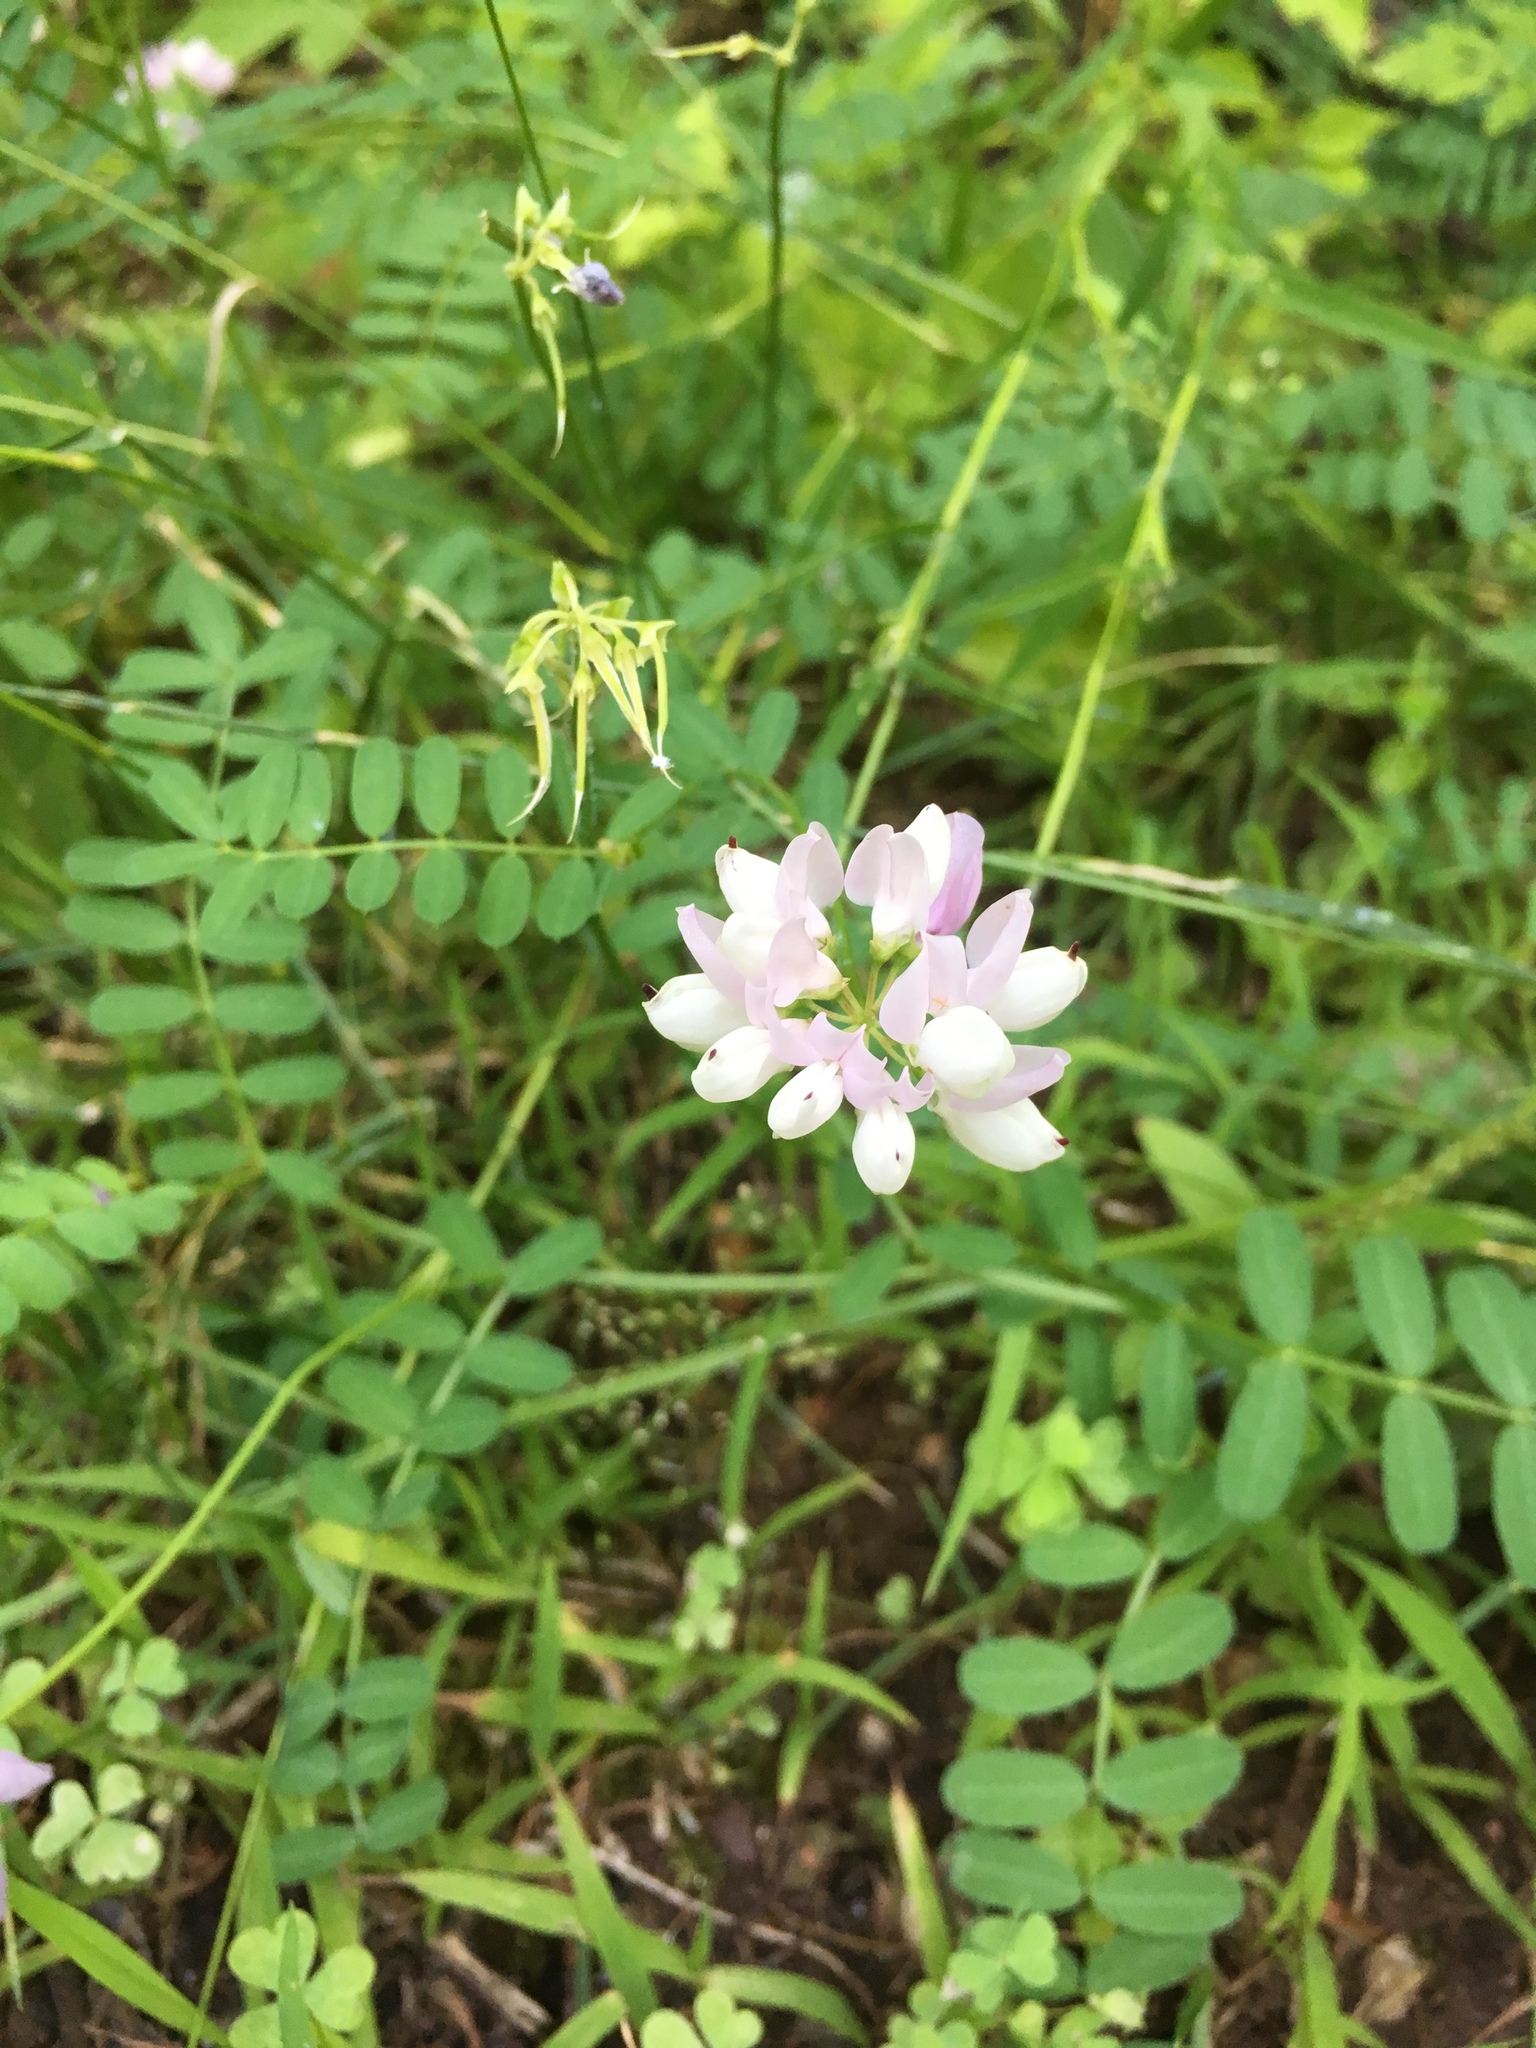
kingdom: Plantae
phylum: Tracheophyta
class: Magnoliopsida
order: Fabales
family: Fabaceae
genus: Coronilla
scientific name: Coronilla varia
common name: Crownvetch
